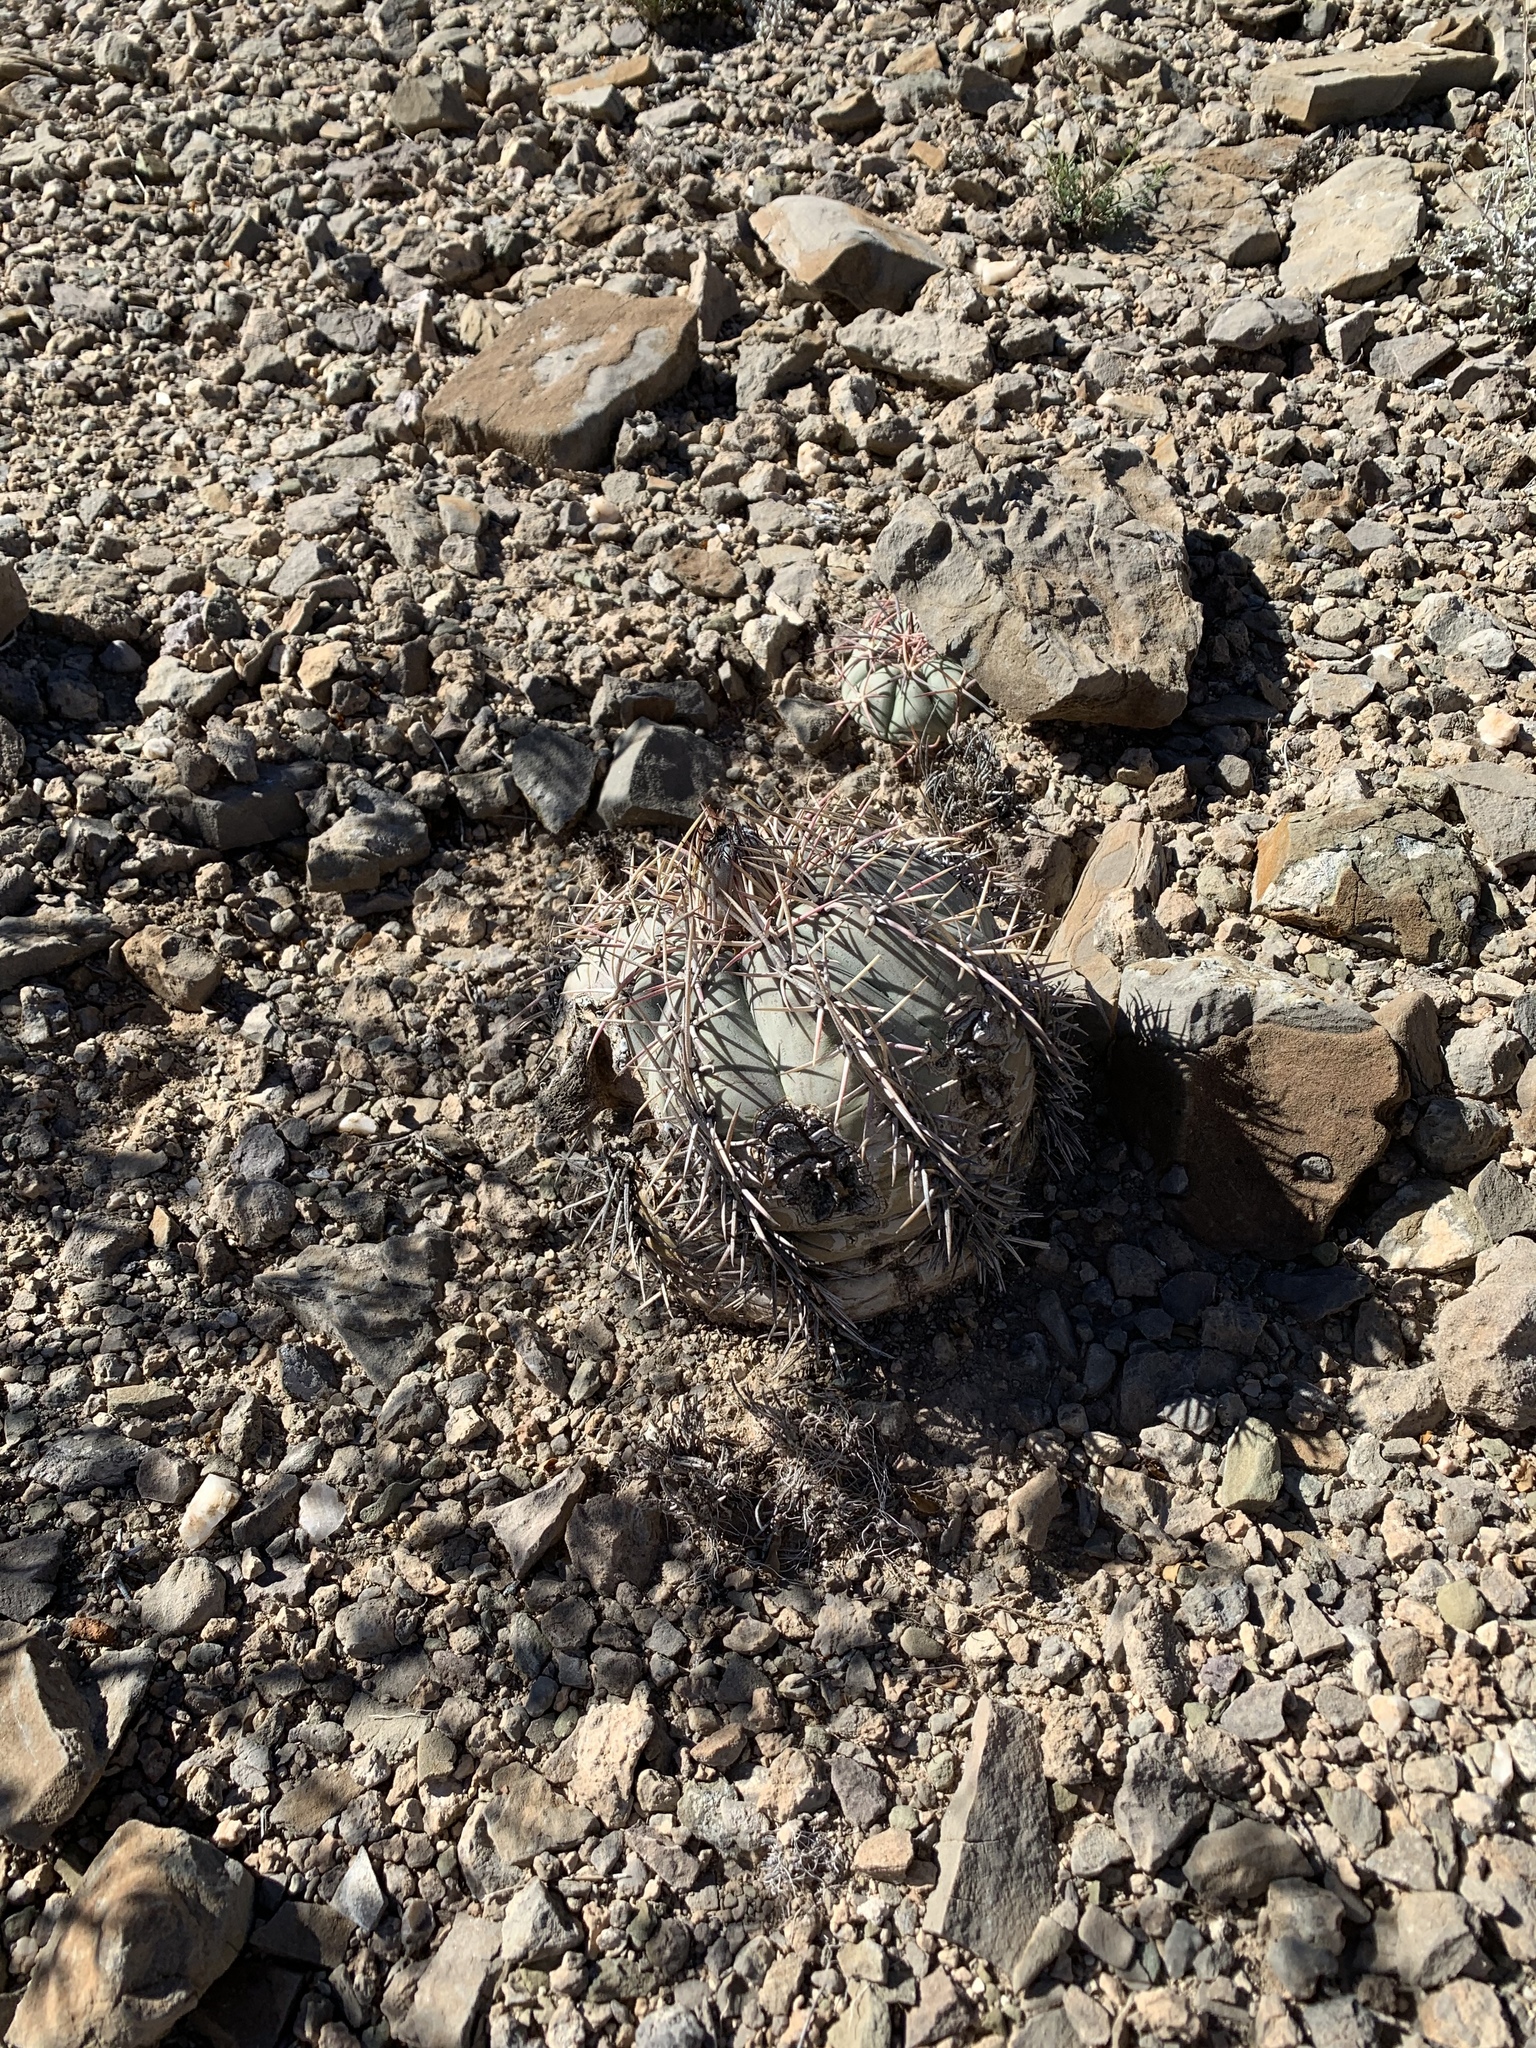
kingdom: Plantae
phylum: Tracheophyta
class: Magnoliopsida
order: Caryophyllales
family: Cactaceae
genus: Echinocactus
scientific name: Echinocactus horizonthalonius
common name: Devilshead
